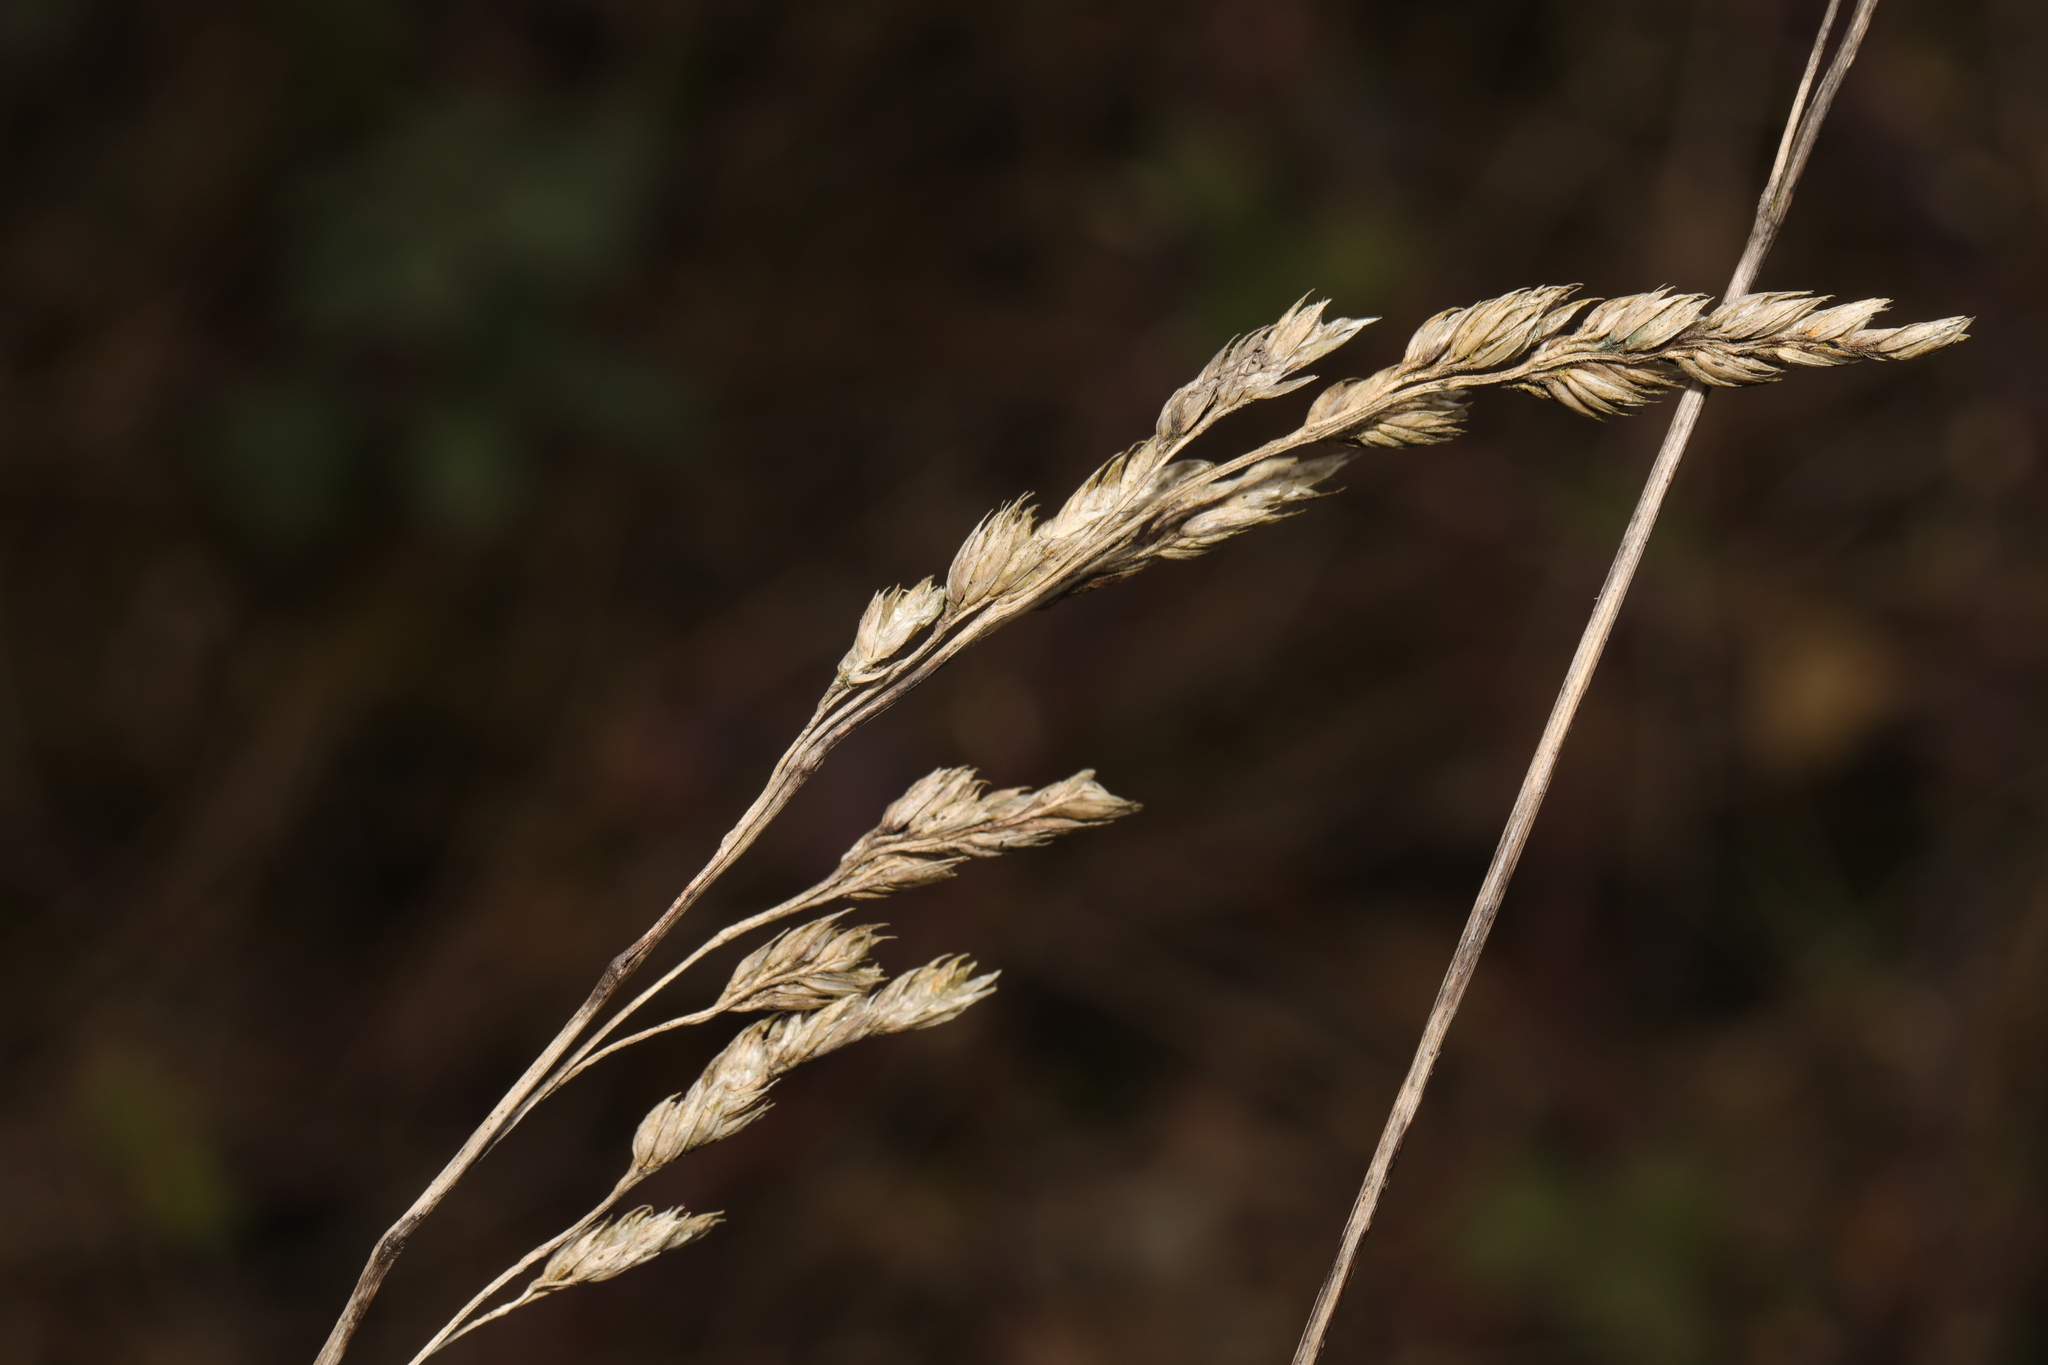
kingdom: Plantae
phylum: Tracheophyta
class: Liliopsida
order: Poales
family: Poaceae
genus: Dactylis
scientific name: Dactylis glomerata
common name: Orchardgrass
